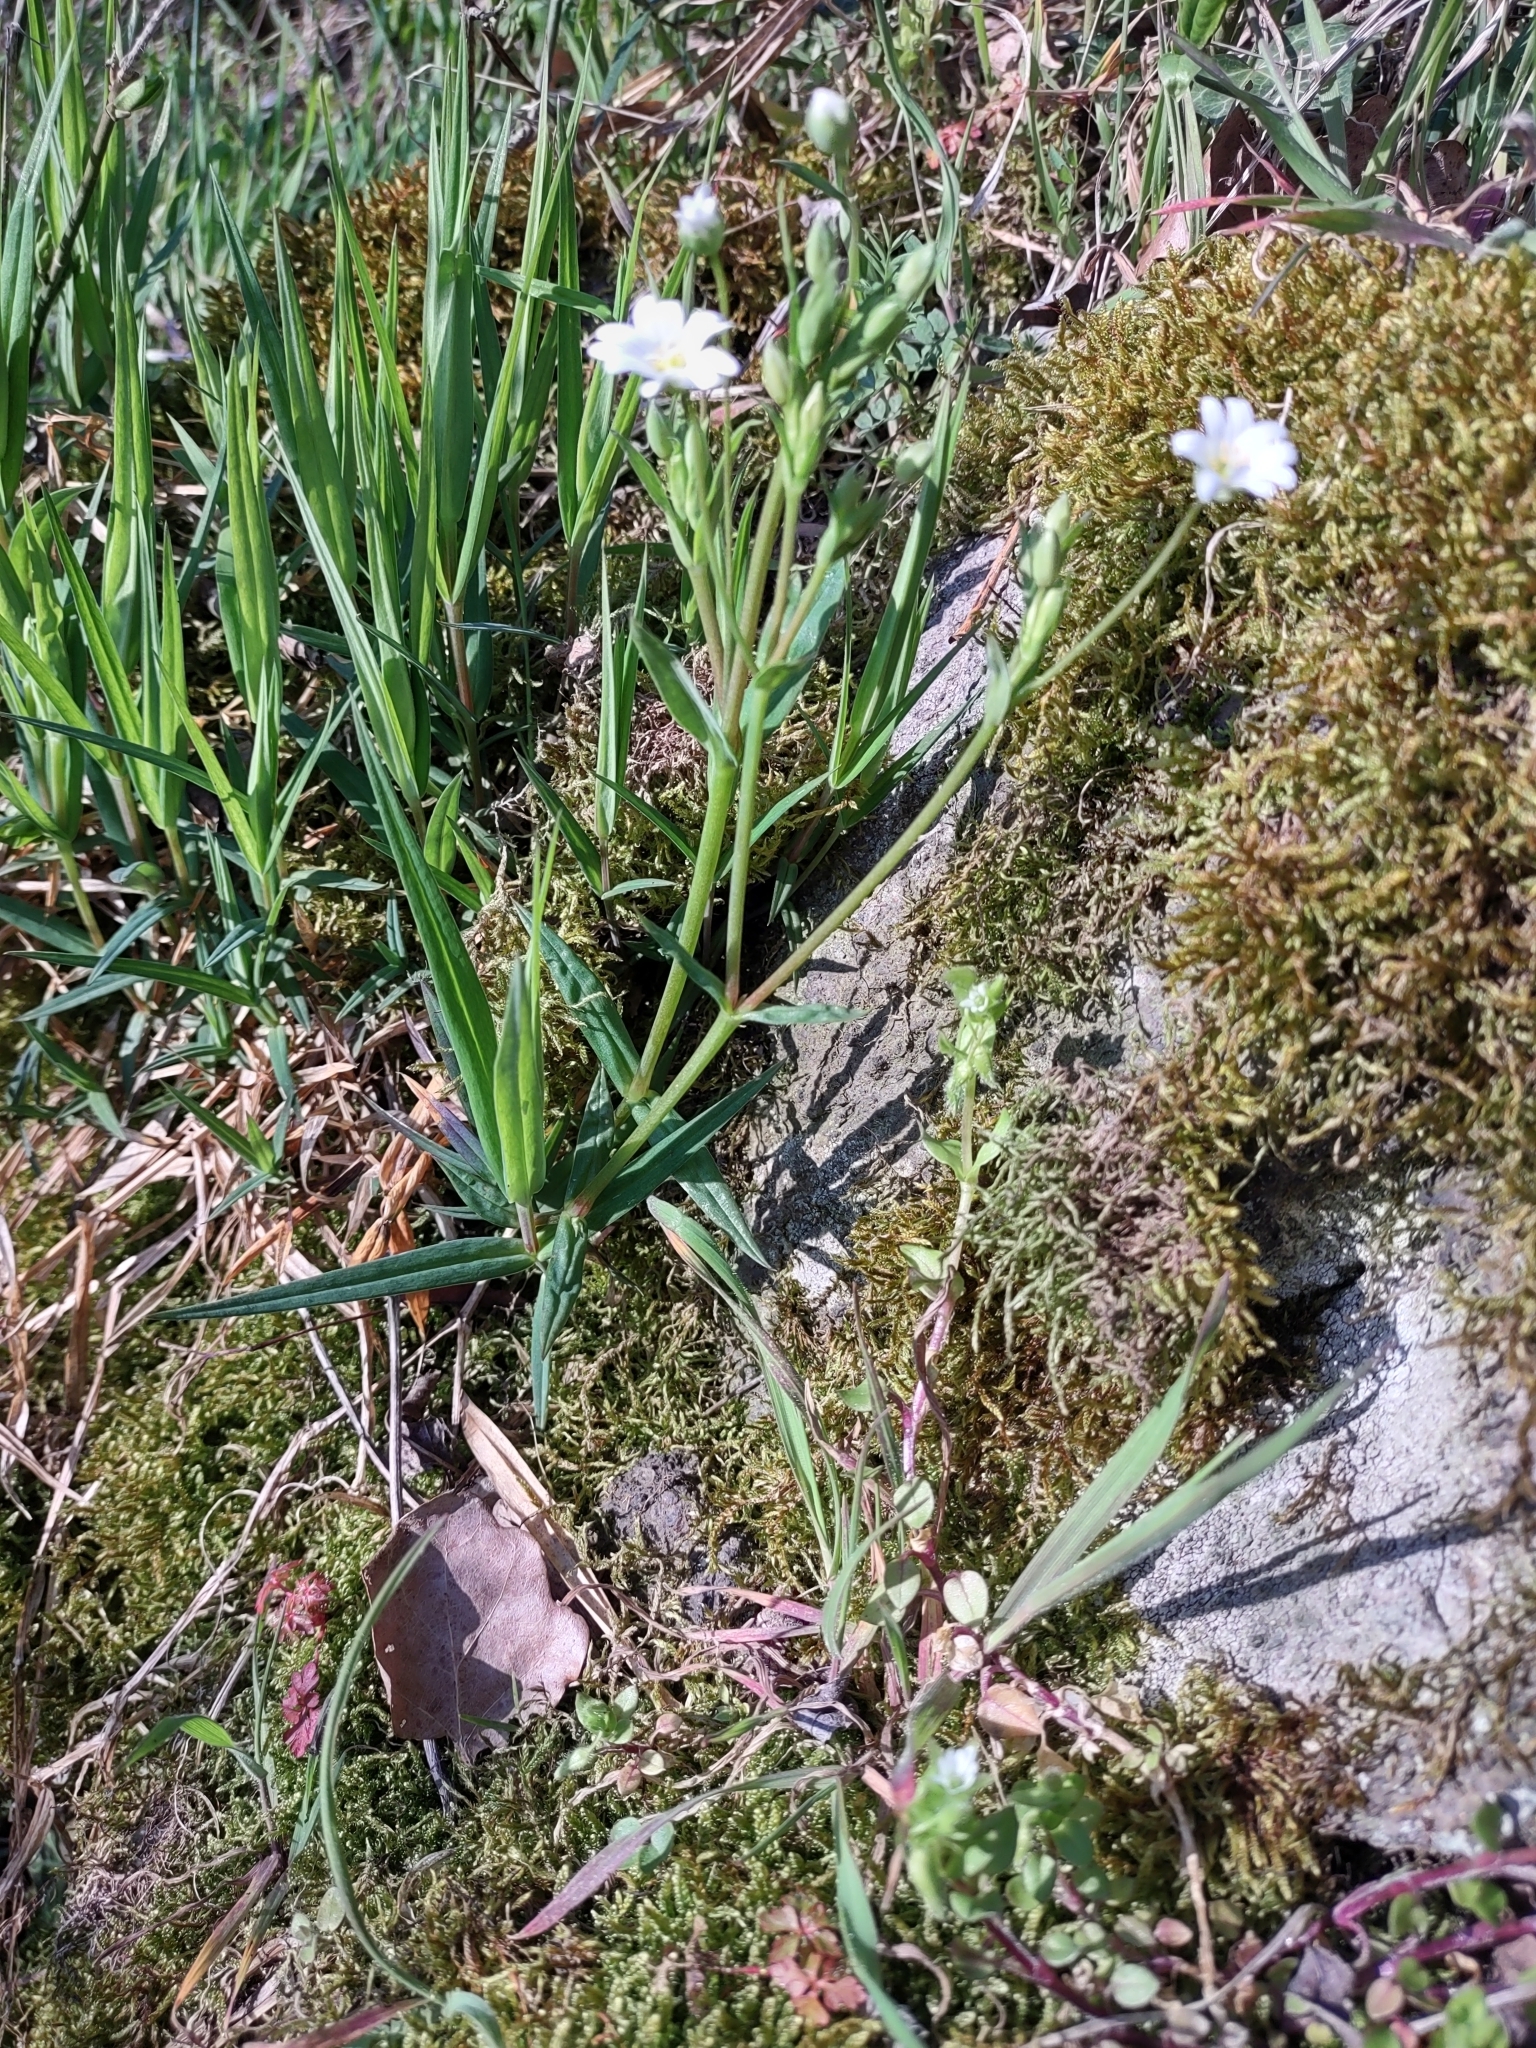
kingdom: Plantae
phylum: Tracheophyta
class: Magnoliopsida
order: Caryophyllales
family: Caryophyllaceae
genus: Rabelera
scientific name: Rabelera holostea
